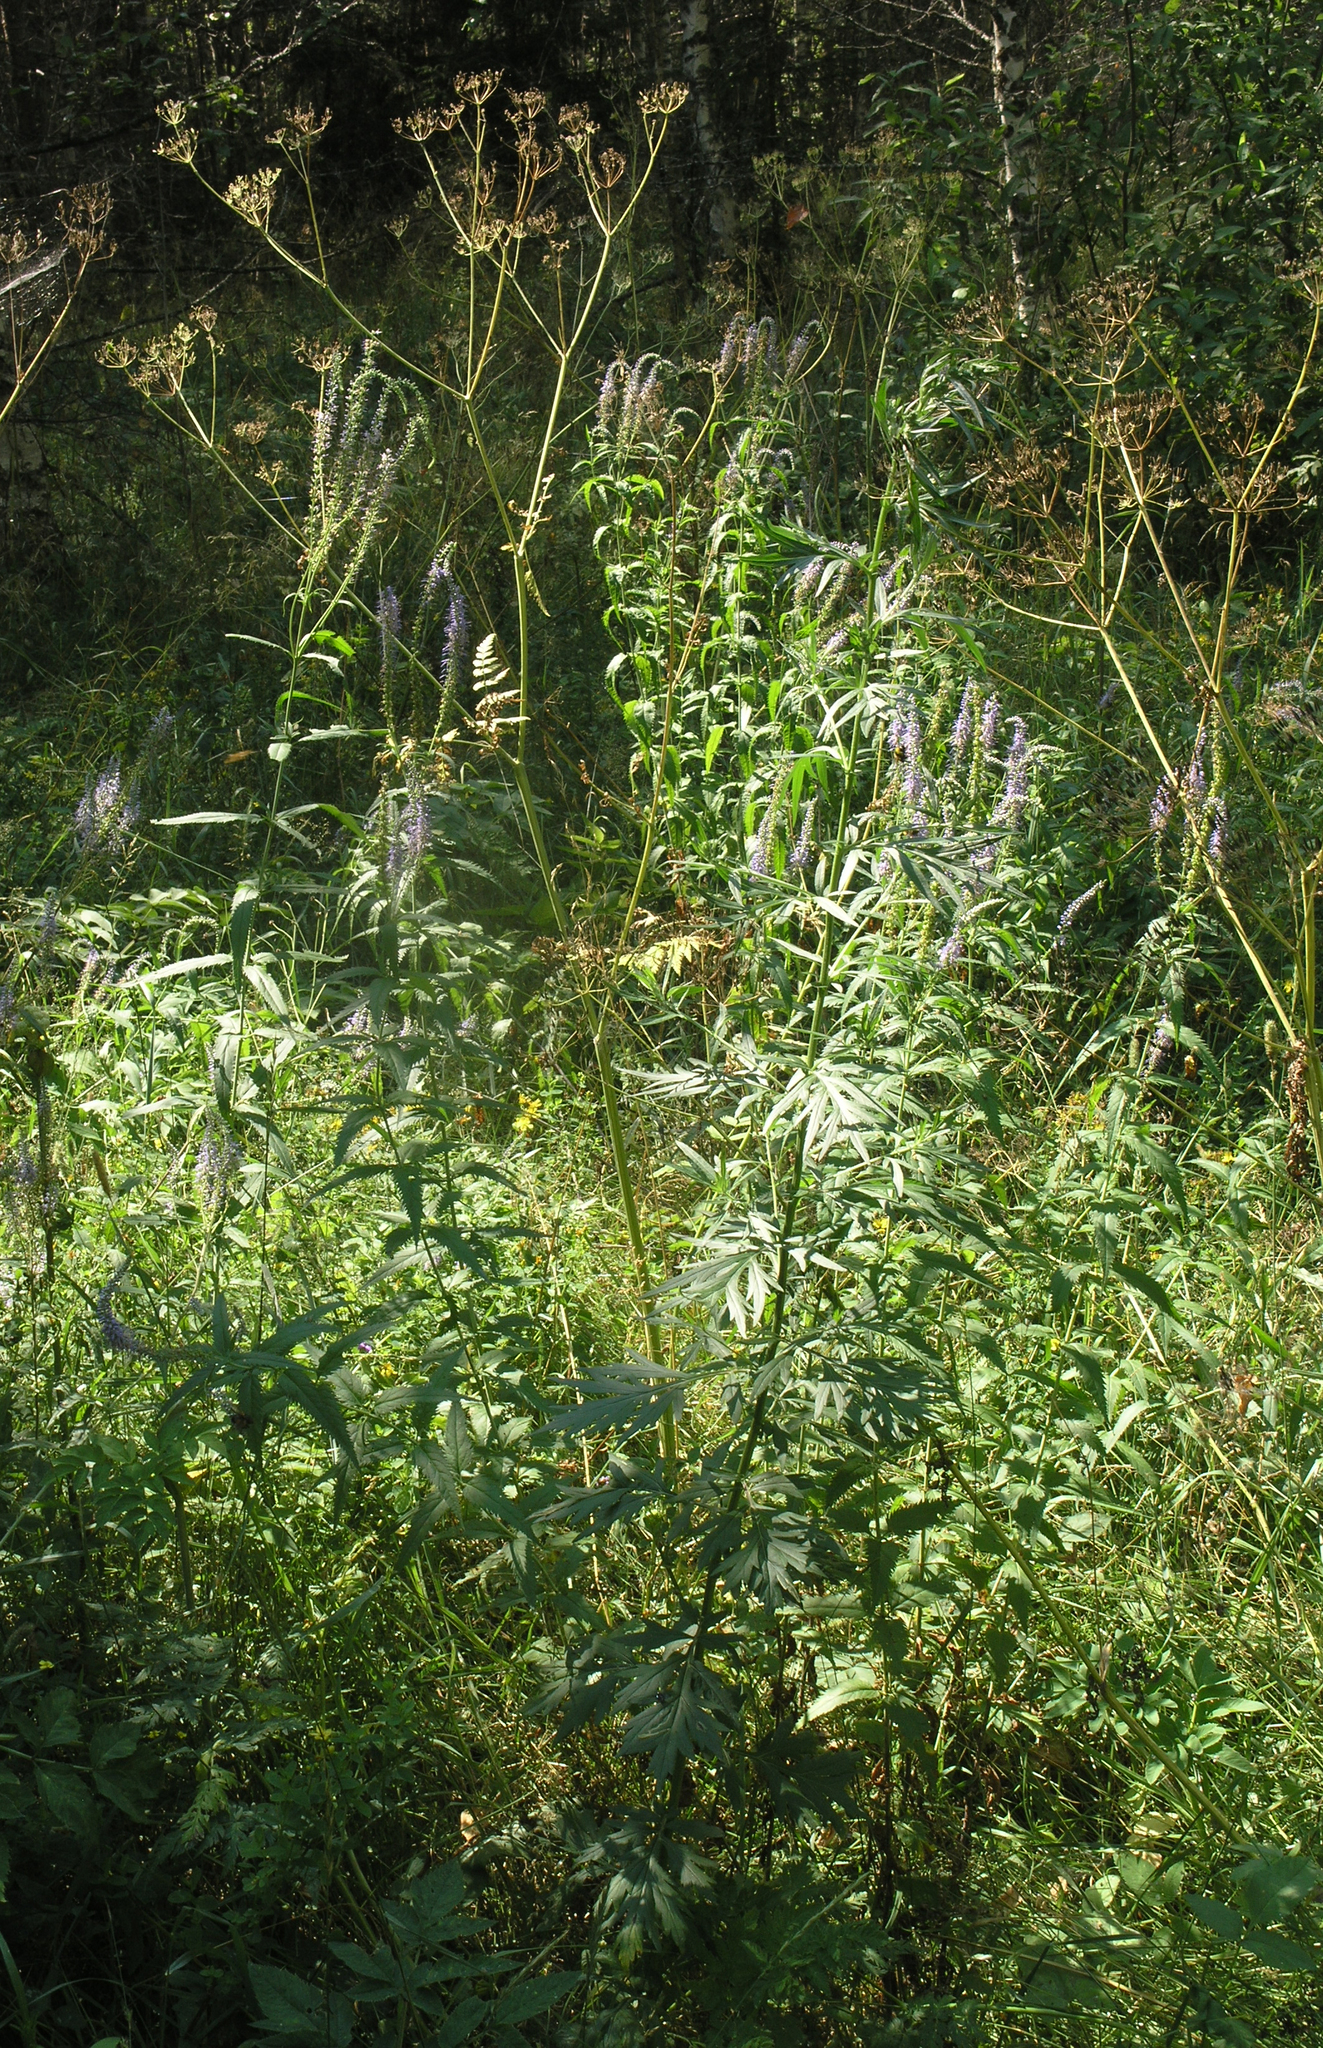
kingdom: Plantae
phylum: Tracheophyta
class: Magnoliopsida
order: Lamiales
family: Plantaginaceae
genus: Veronica
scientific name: Veronica longifolia
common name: Garden speedwell
